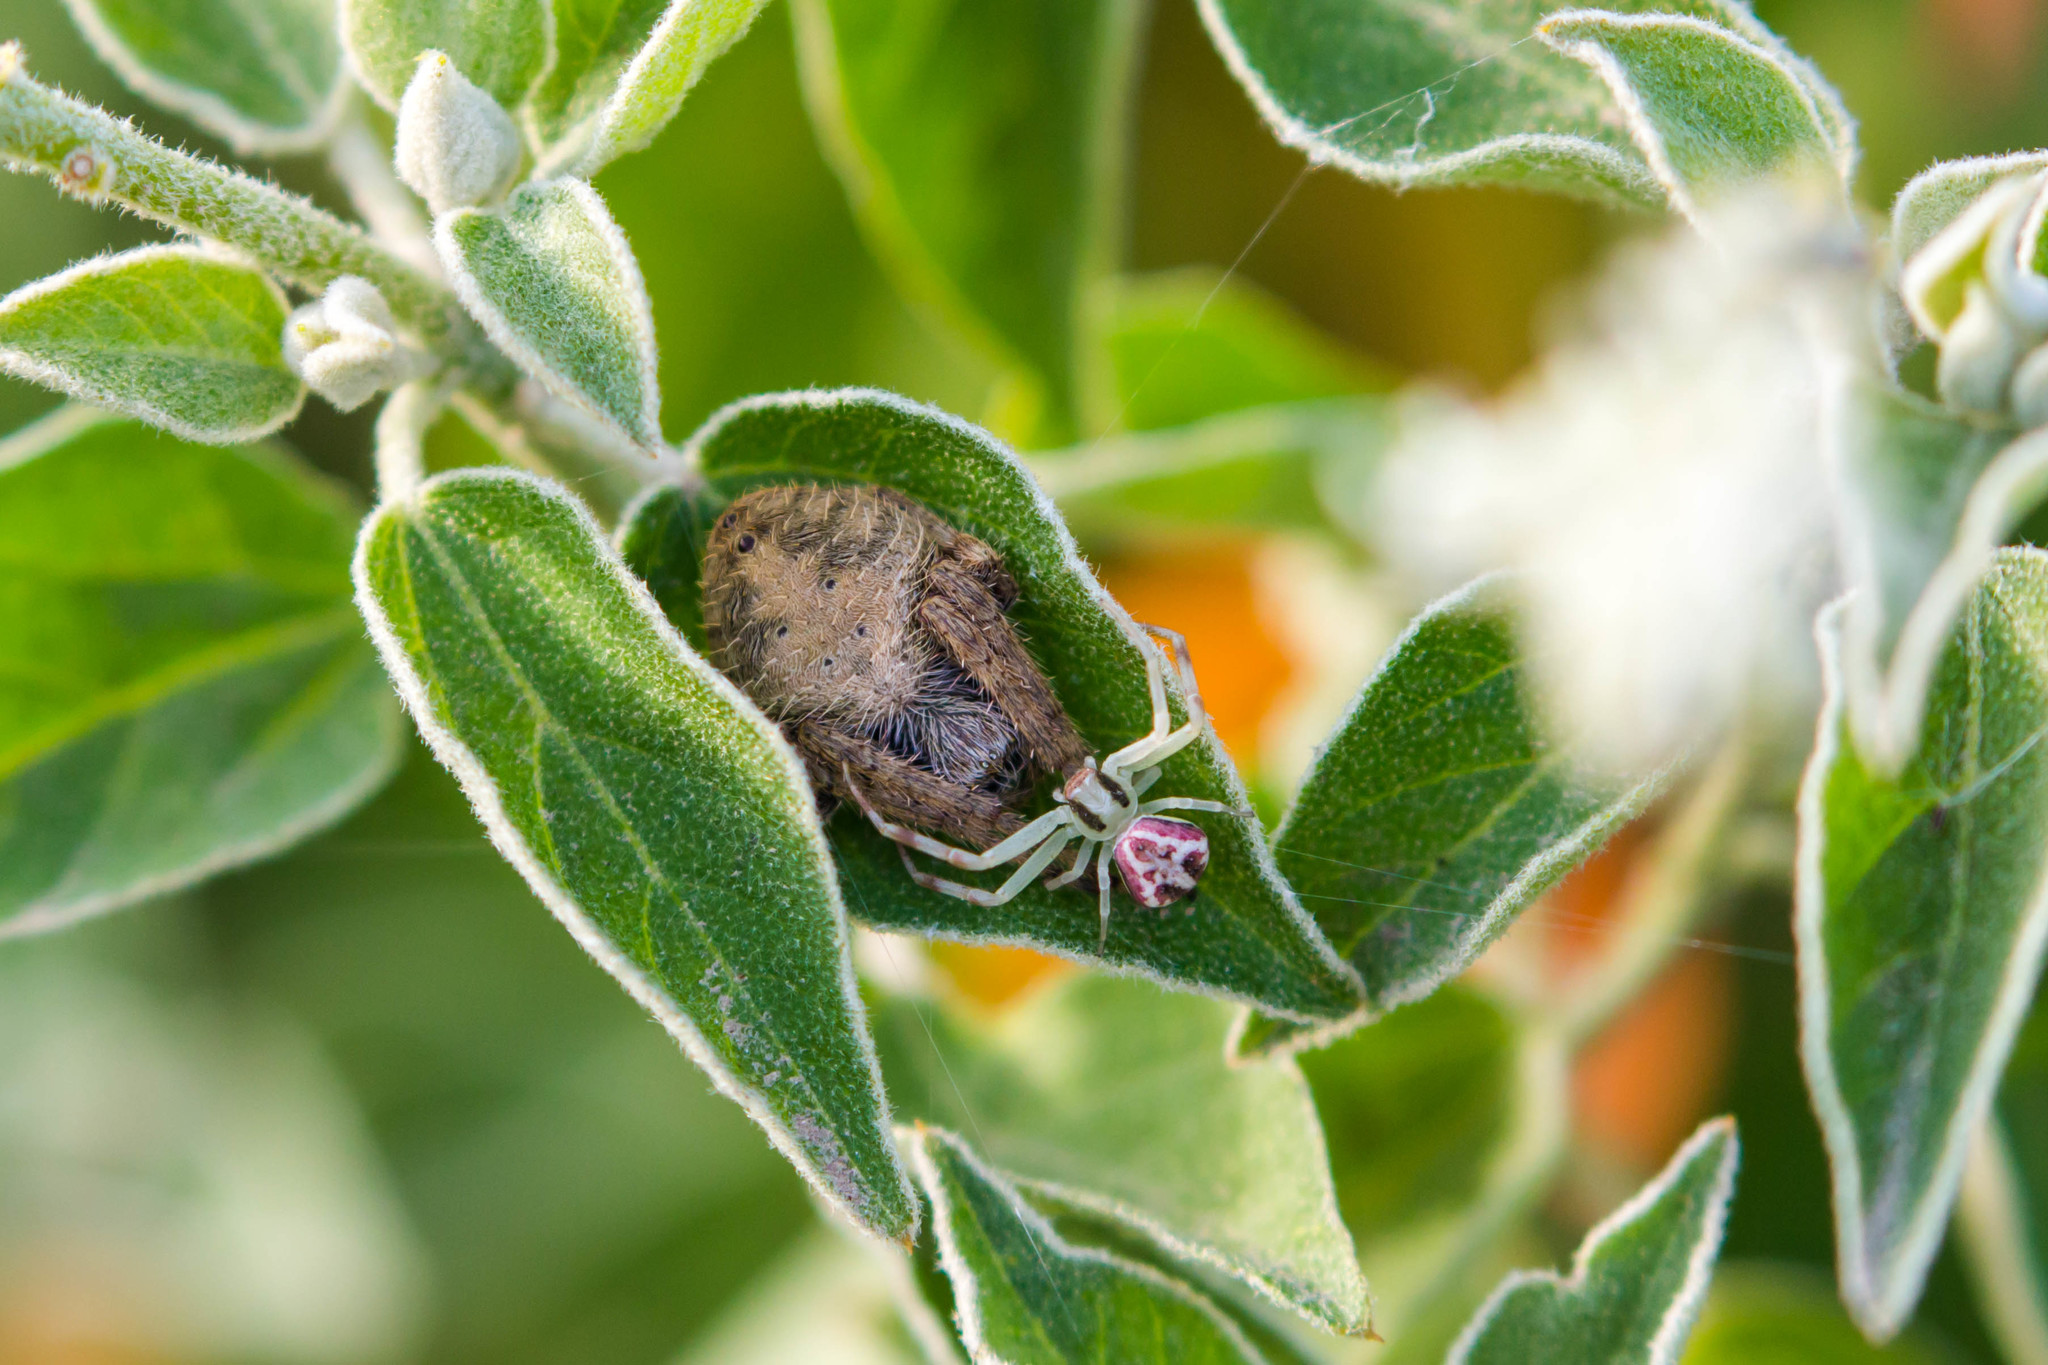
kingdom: Animalia
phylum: Arthropoda
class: Arachnida
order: Araneae
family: Araneidae
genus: Eriophora
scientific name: Eriophora ravilla
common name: Orb weavers
